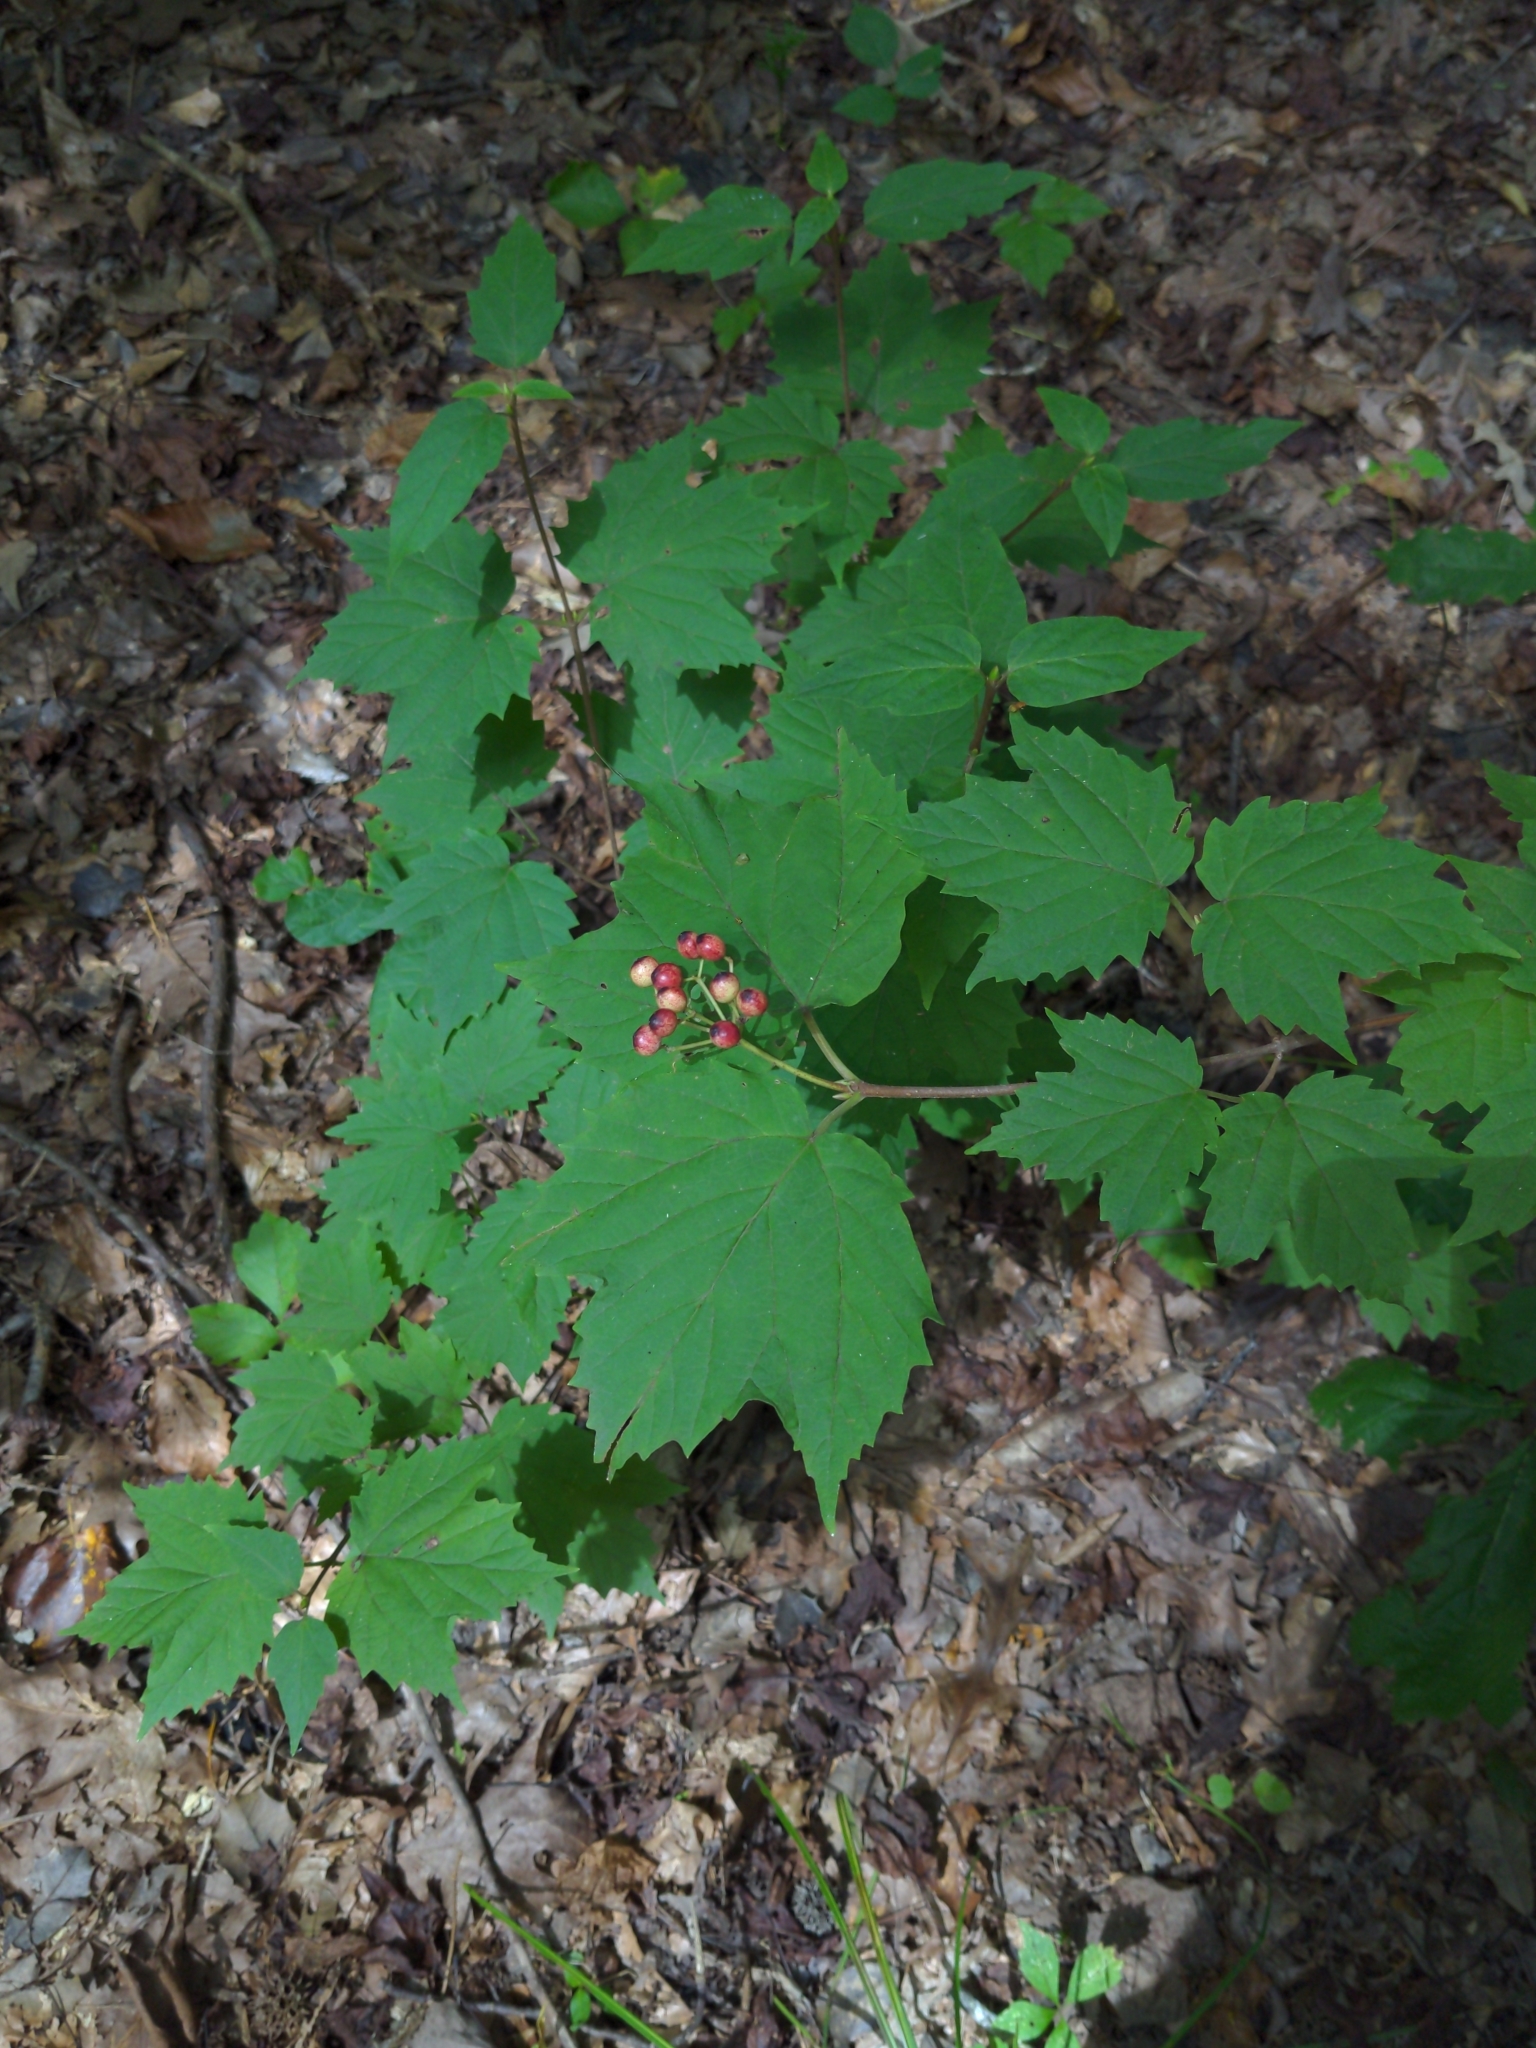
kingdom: Plantae
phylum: Tracheophyta
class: Magnoliopsida
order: Dipsacales
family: Viburnaceae
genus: Viburnum
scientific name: Viburnum acerifolium
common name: Dockmackie
